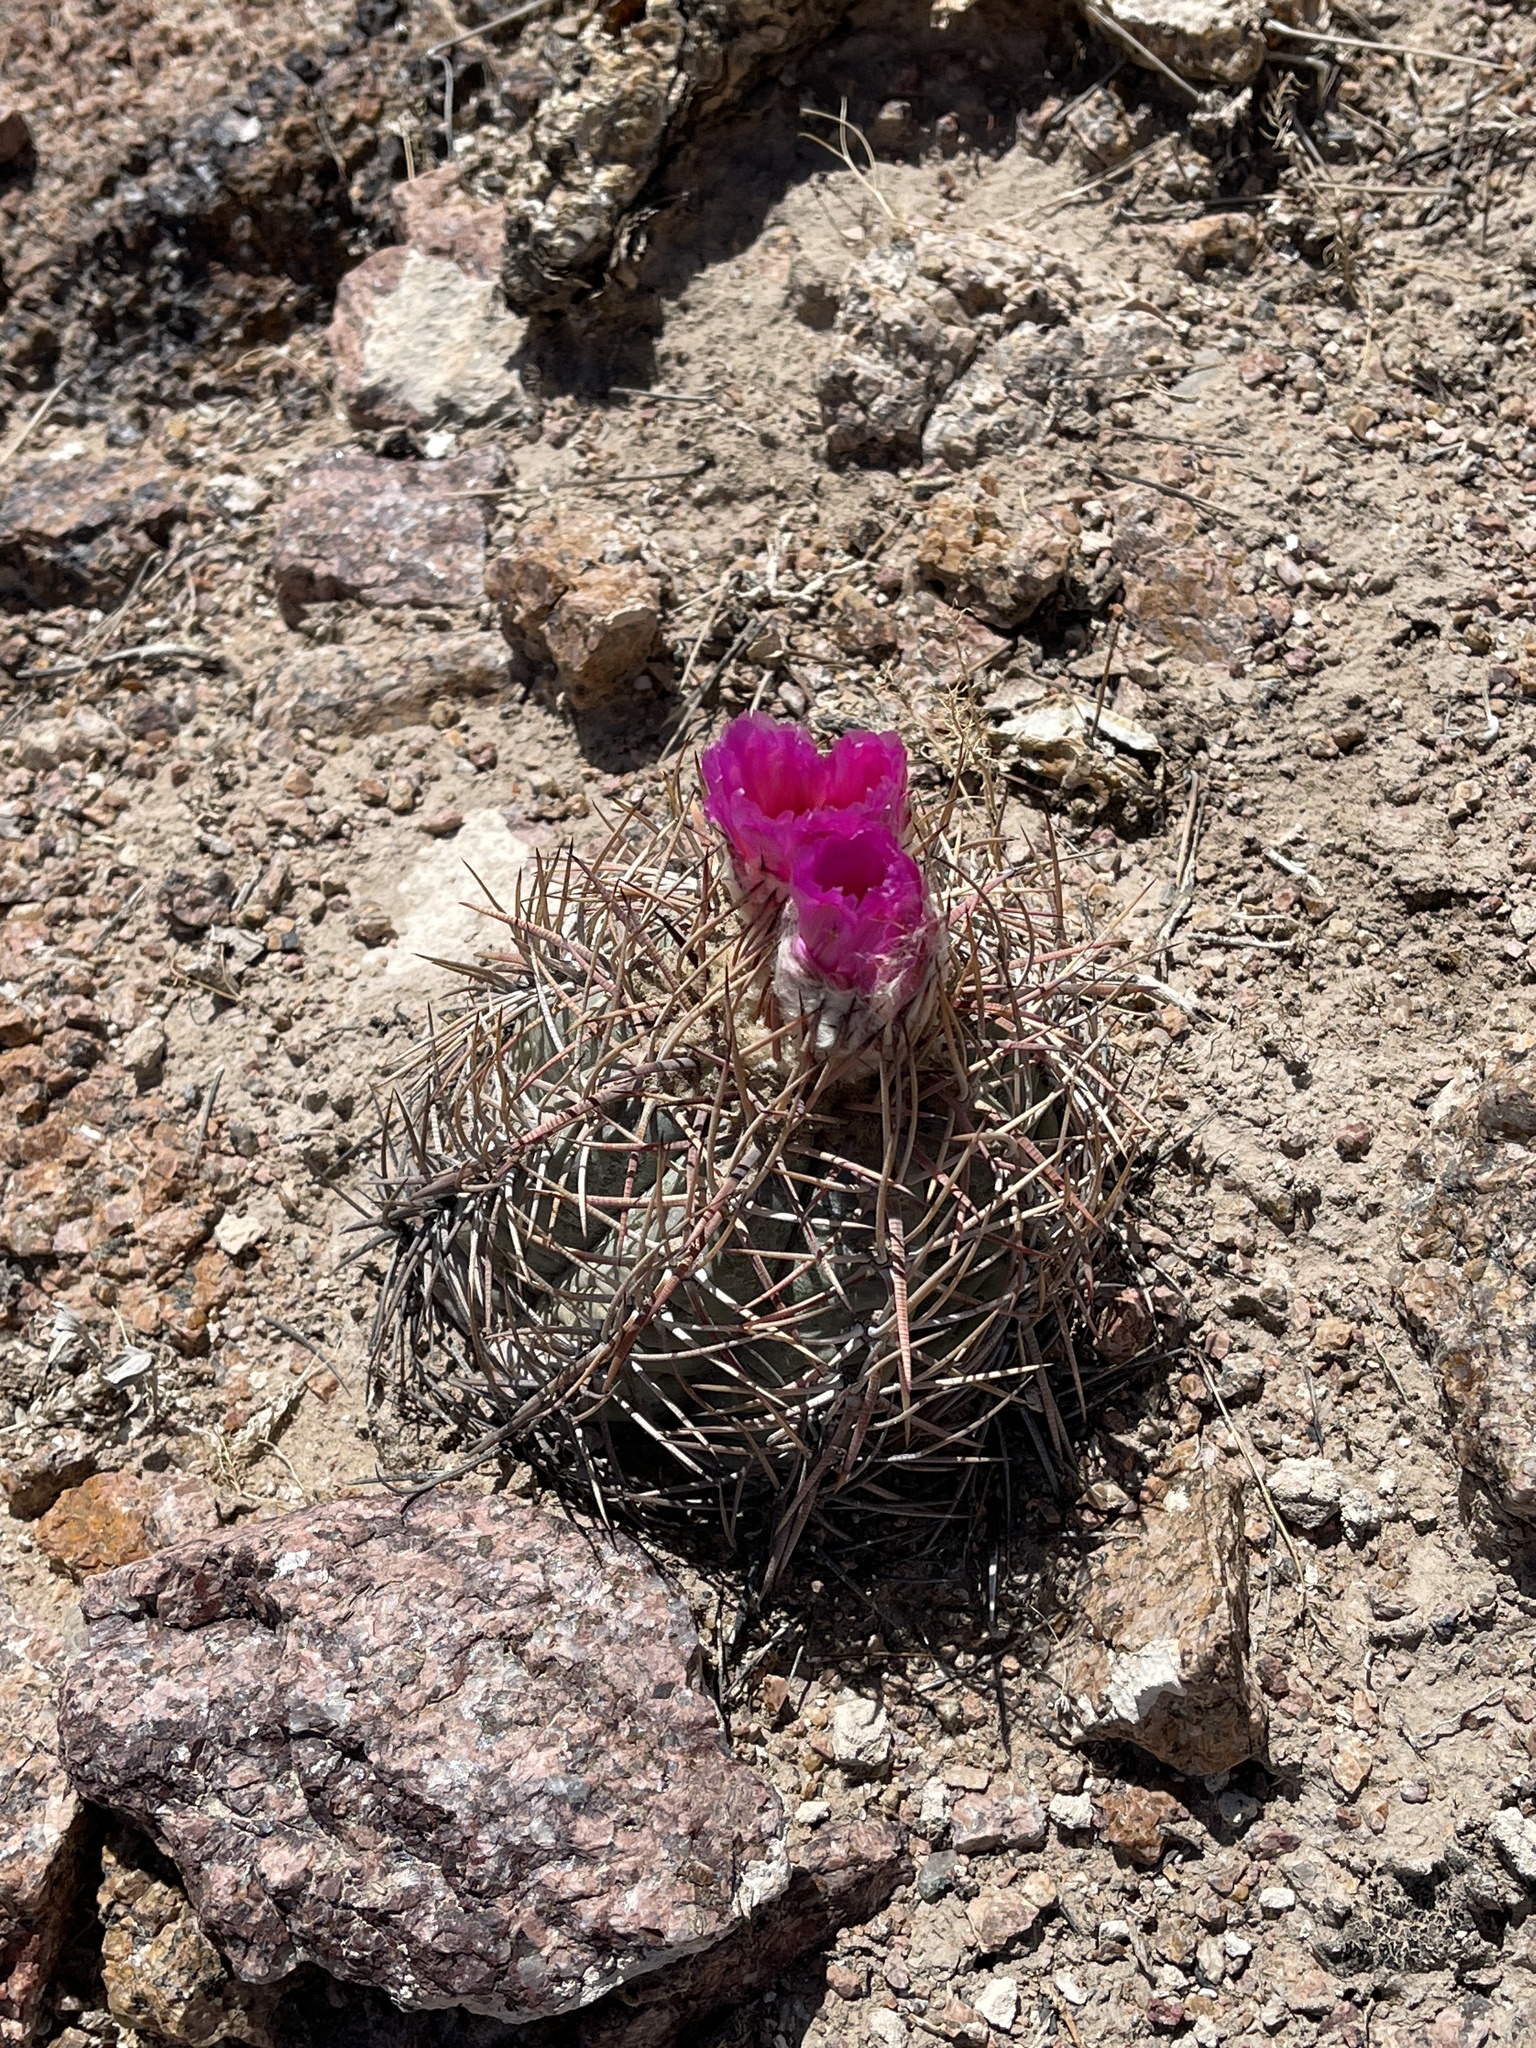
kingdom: Plantae
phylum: Tracheophyta
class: Magnoliopsida
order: Caryophyllales
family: Cactaceae
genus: Echinocactus
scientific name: Echinocactus horizonthalonius
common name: Devilshead
